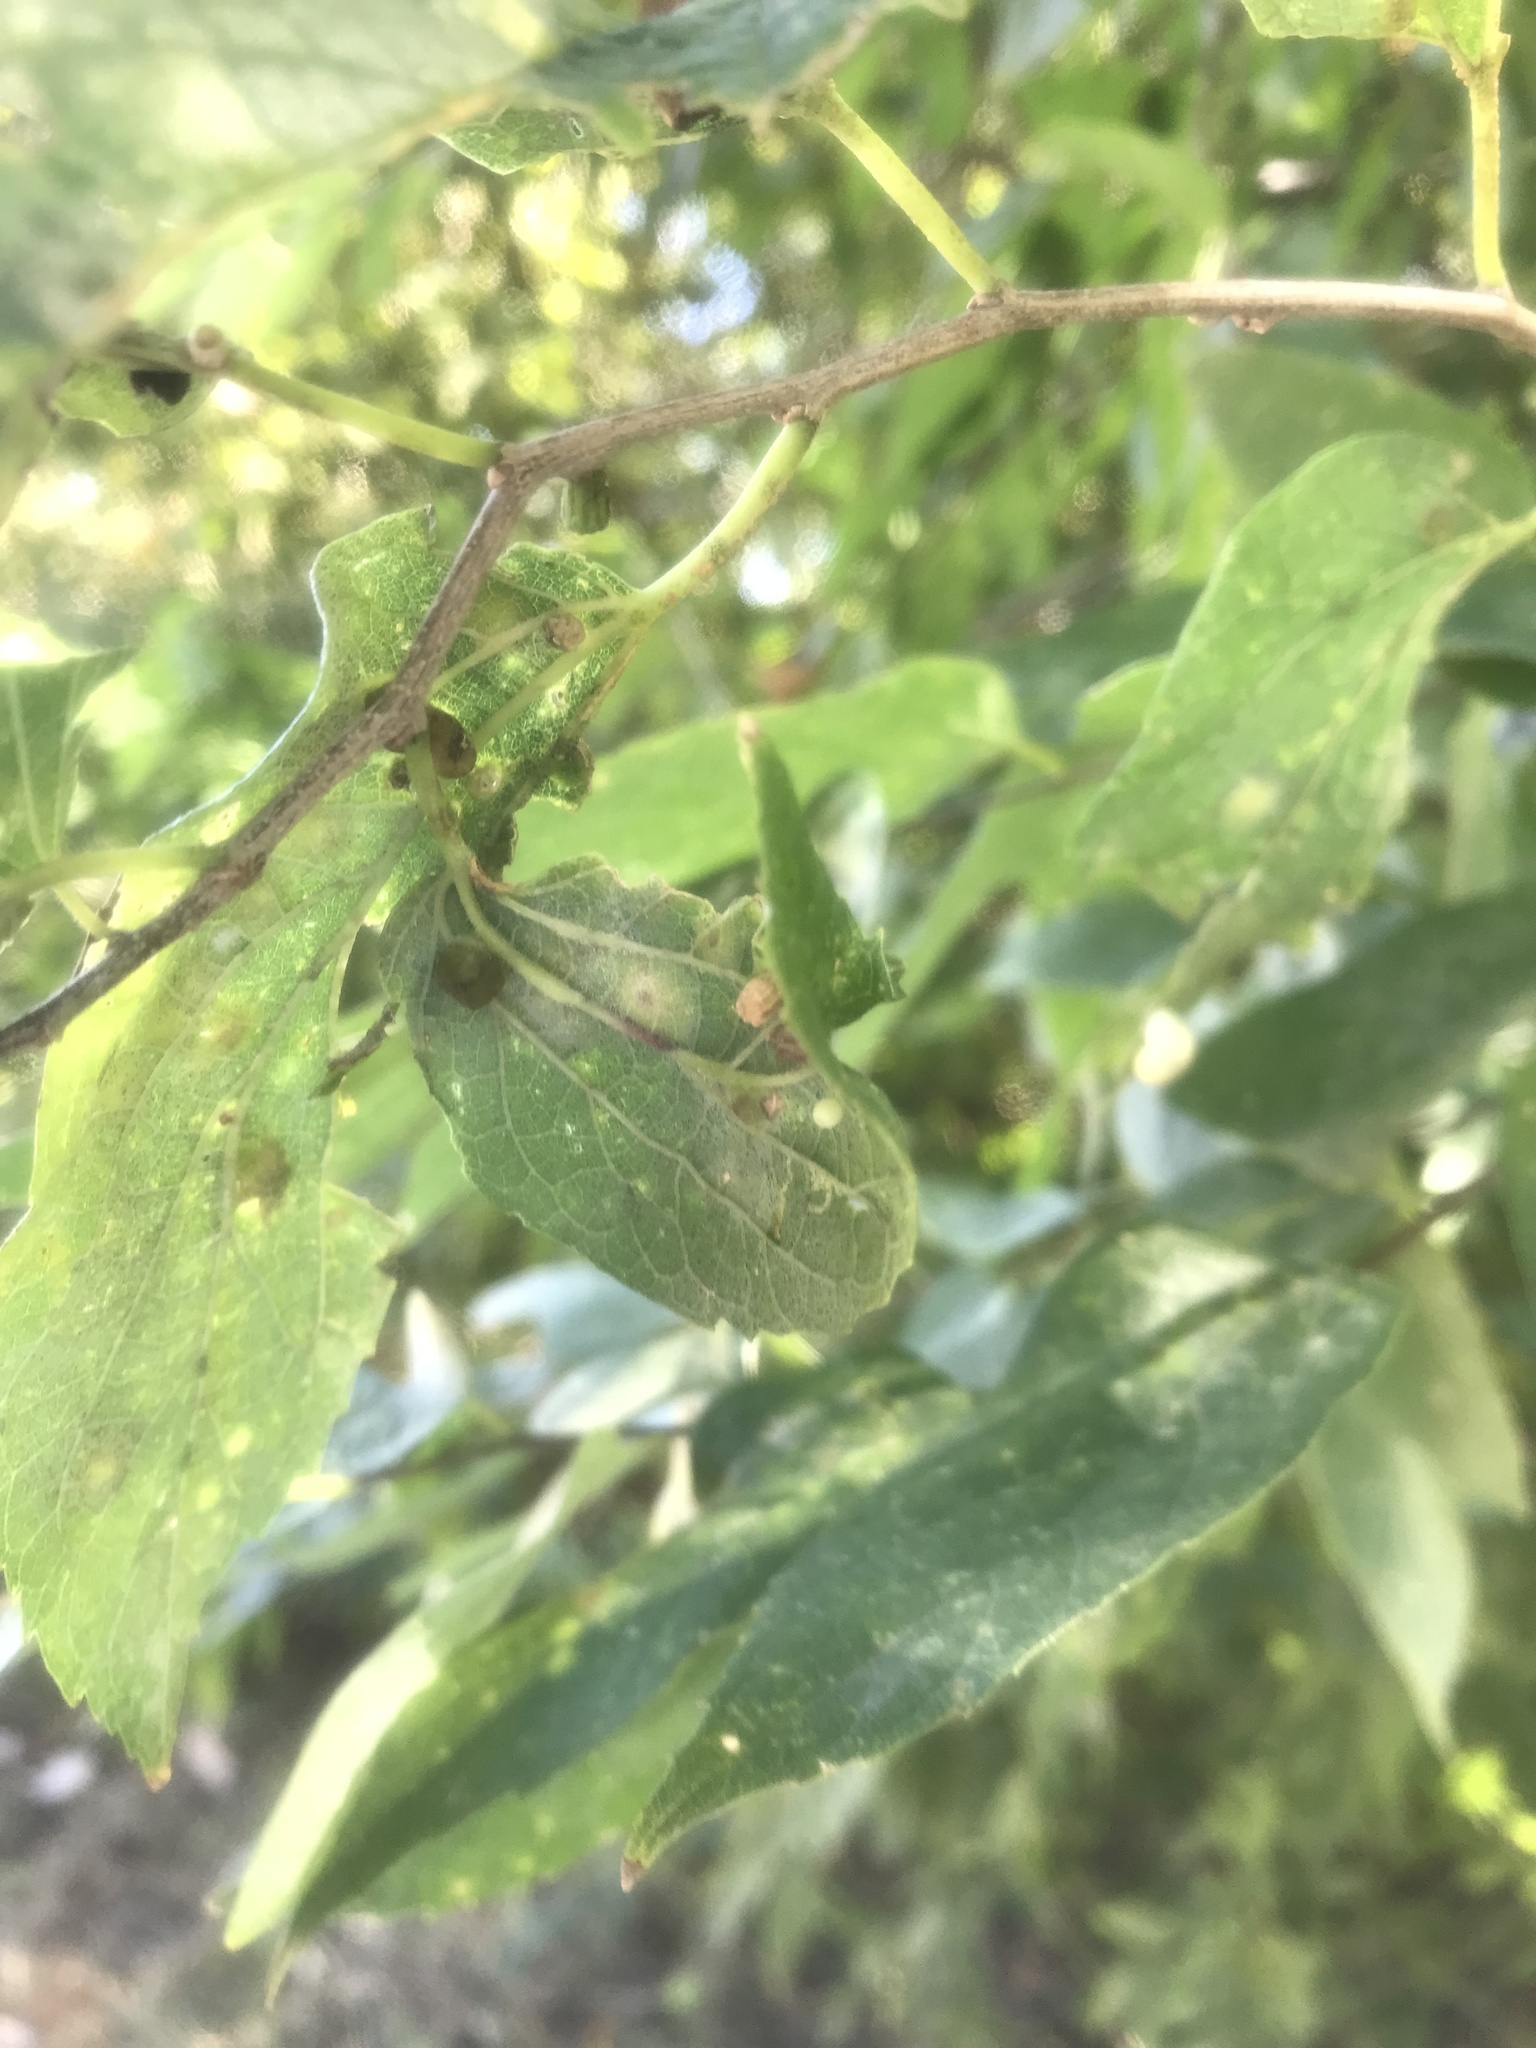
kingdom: Animalia
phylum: Arthropoda
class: Insecta
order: Diptera
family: Cecidomyiidae
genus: Celticecis
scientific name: Celticecis globosa
